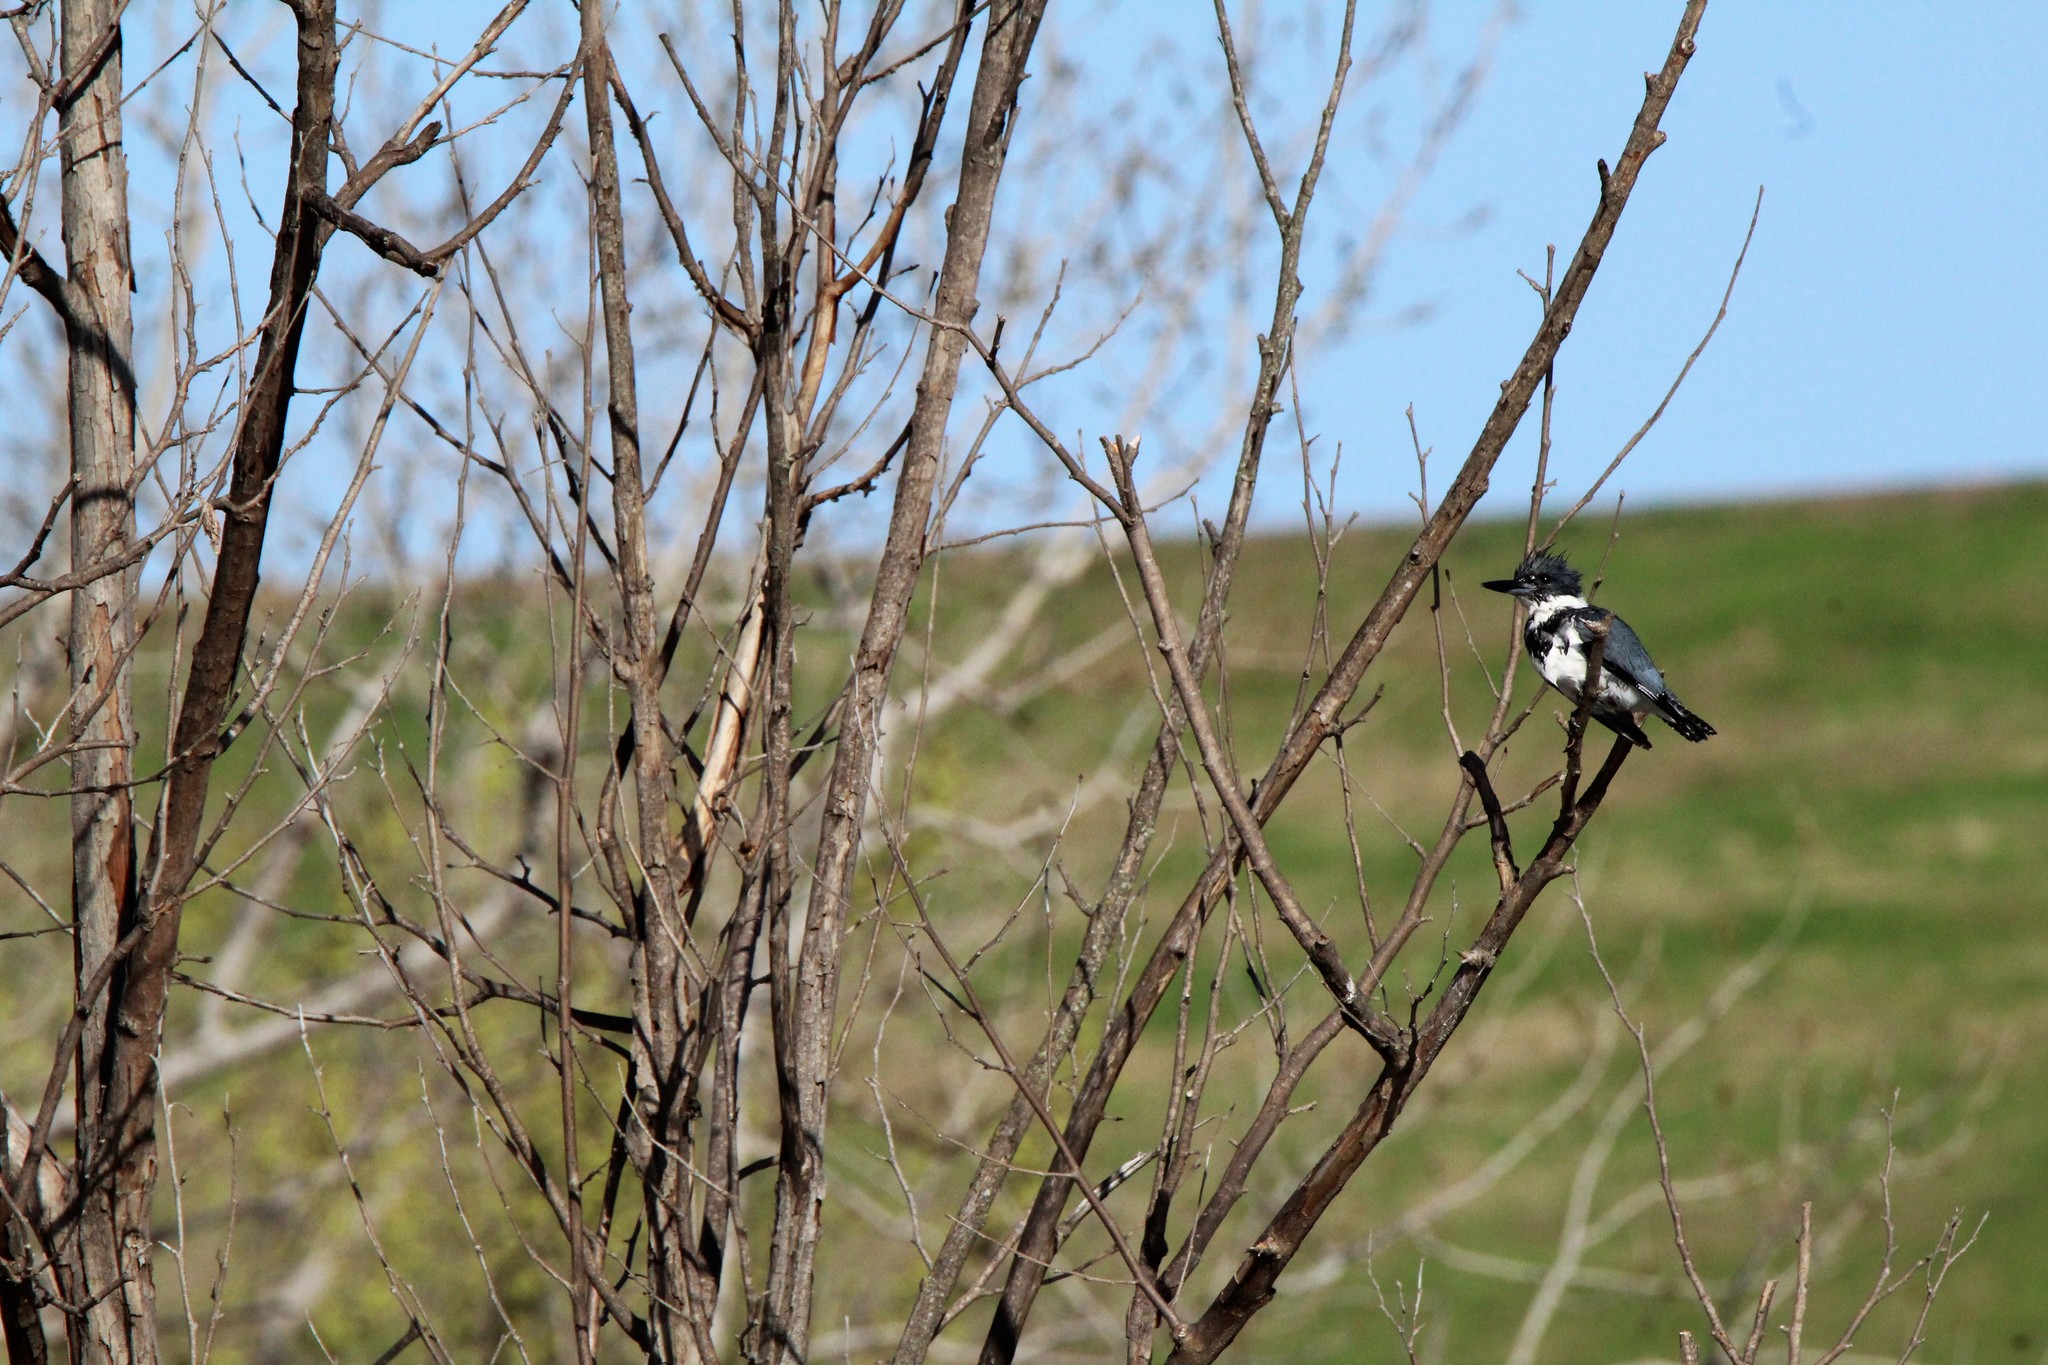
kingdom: Animalia
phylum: Chordata
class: Aves
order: Coraciiformes
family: Alcedinidae
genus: Megaceryle
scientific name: Megaceryle alcyon
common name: Belted kingfisher
